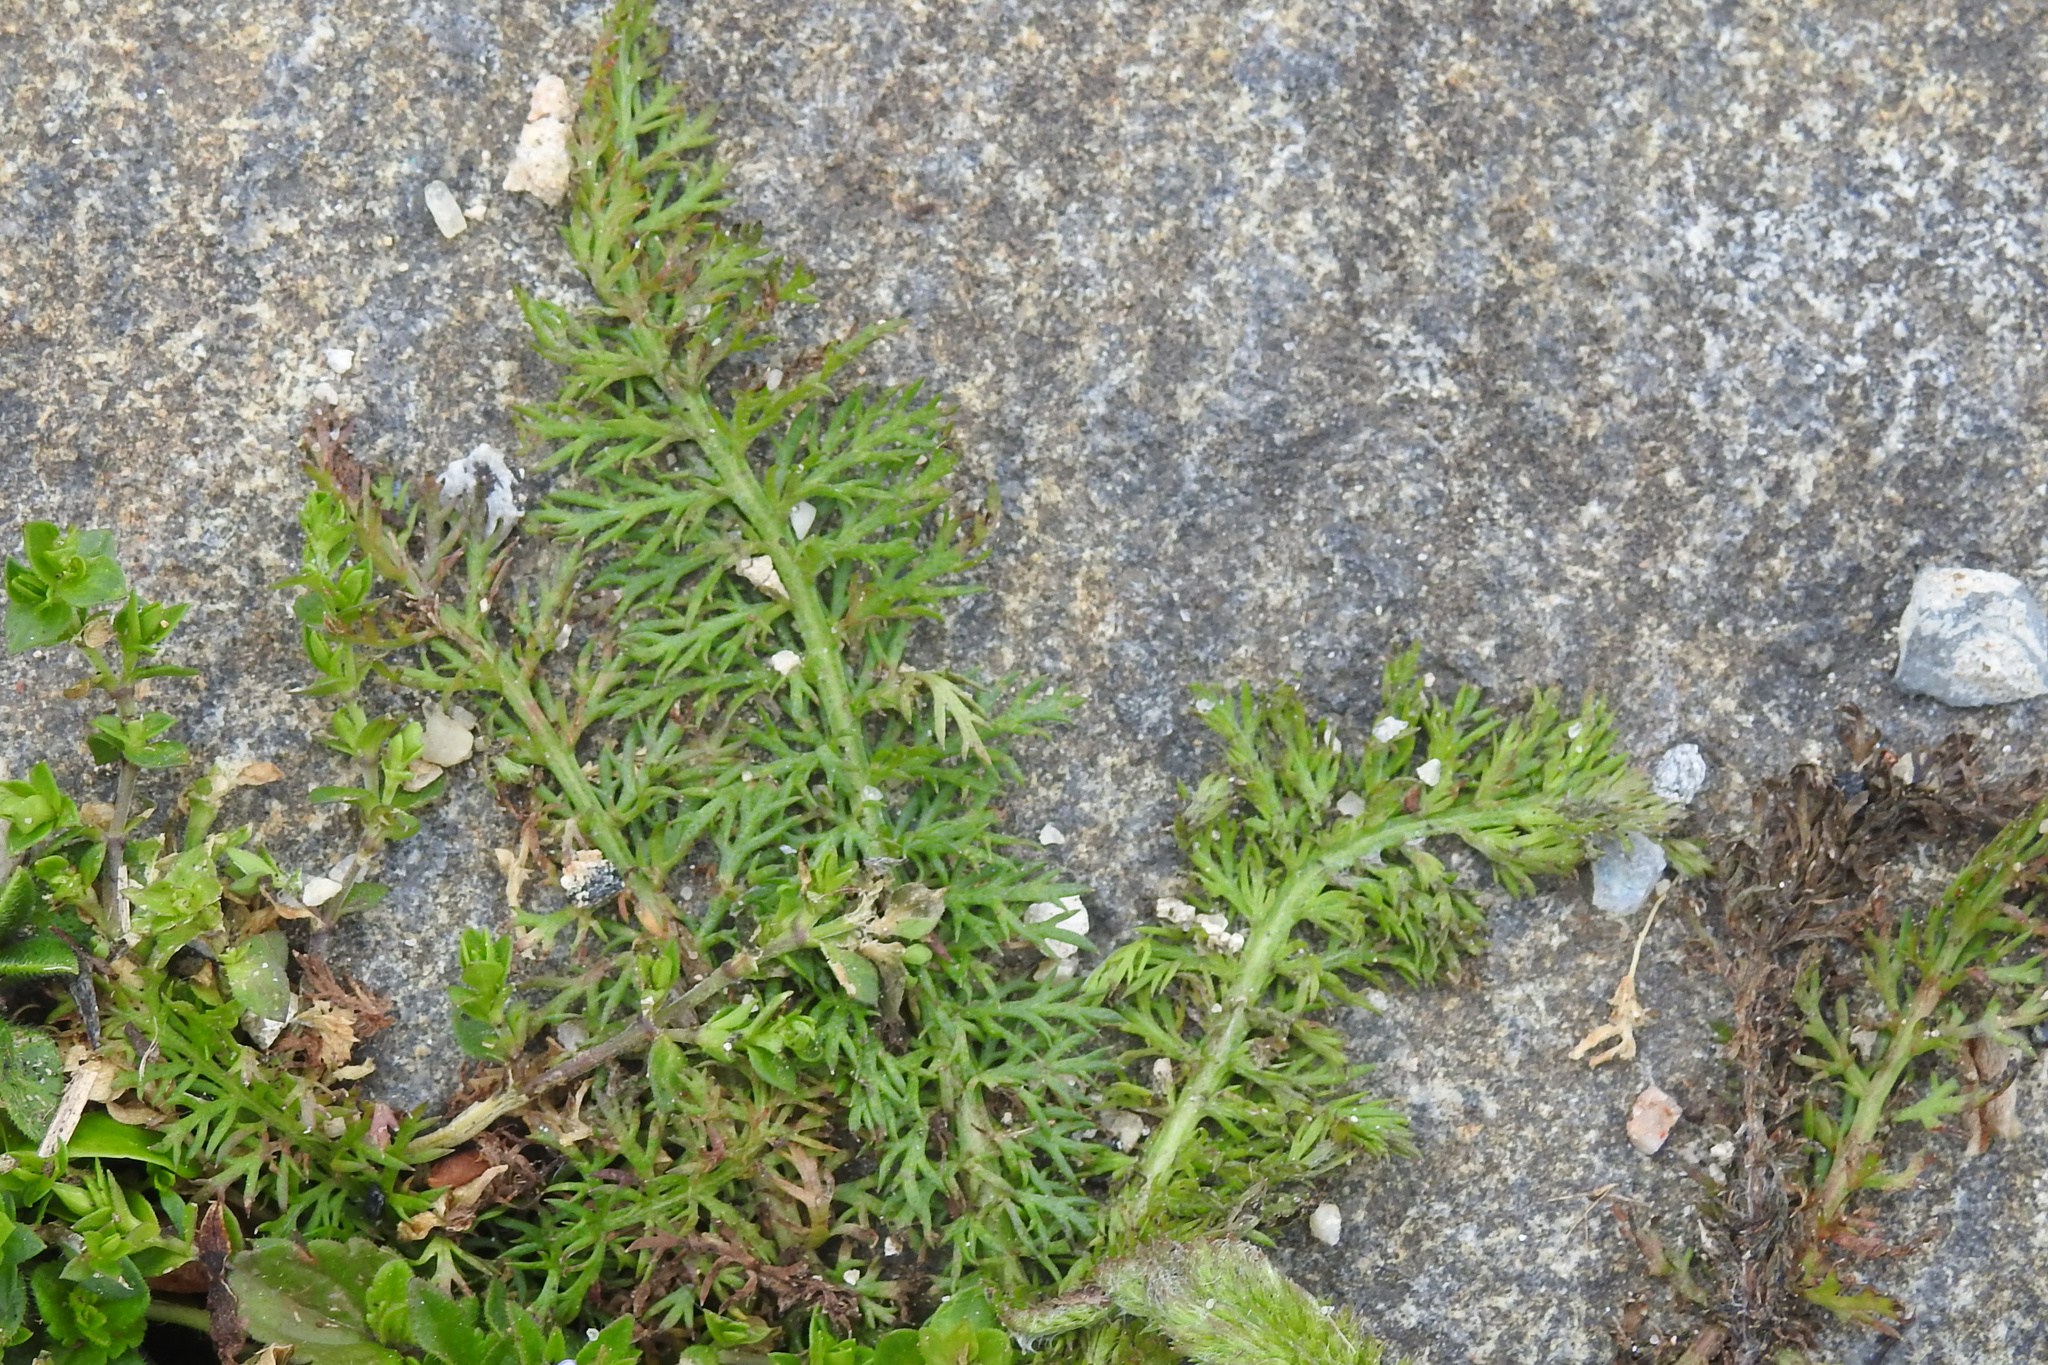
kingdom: Plantae
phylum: Tracheophyta
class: Magnoliopsida
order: Asterales
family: Asteraceae
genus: Matricaria
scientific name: Matricaria discoidea
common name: Disc mayweed
